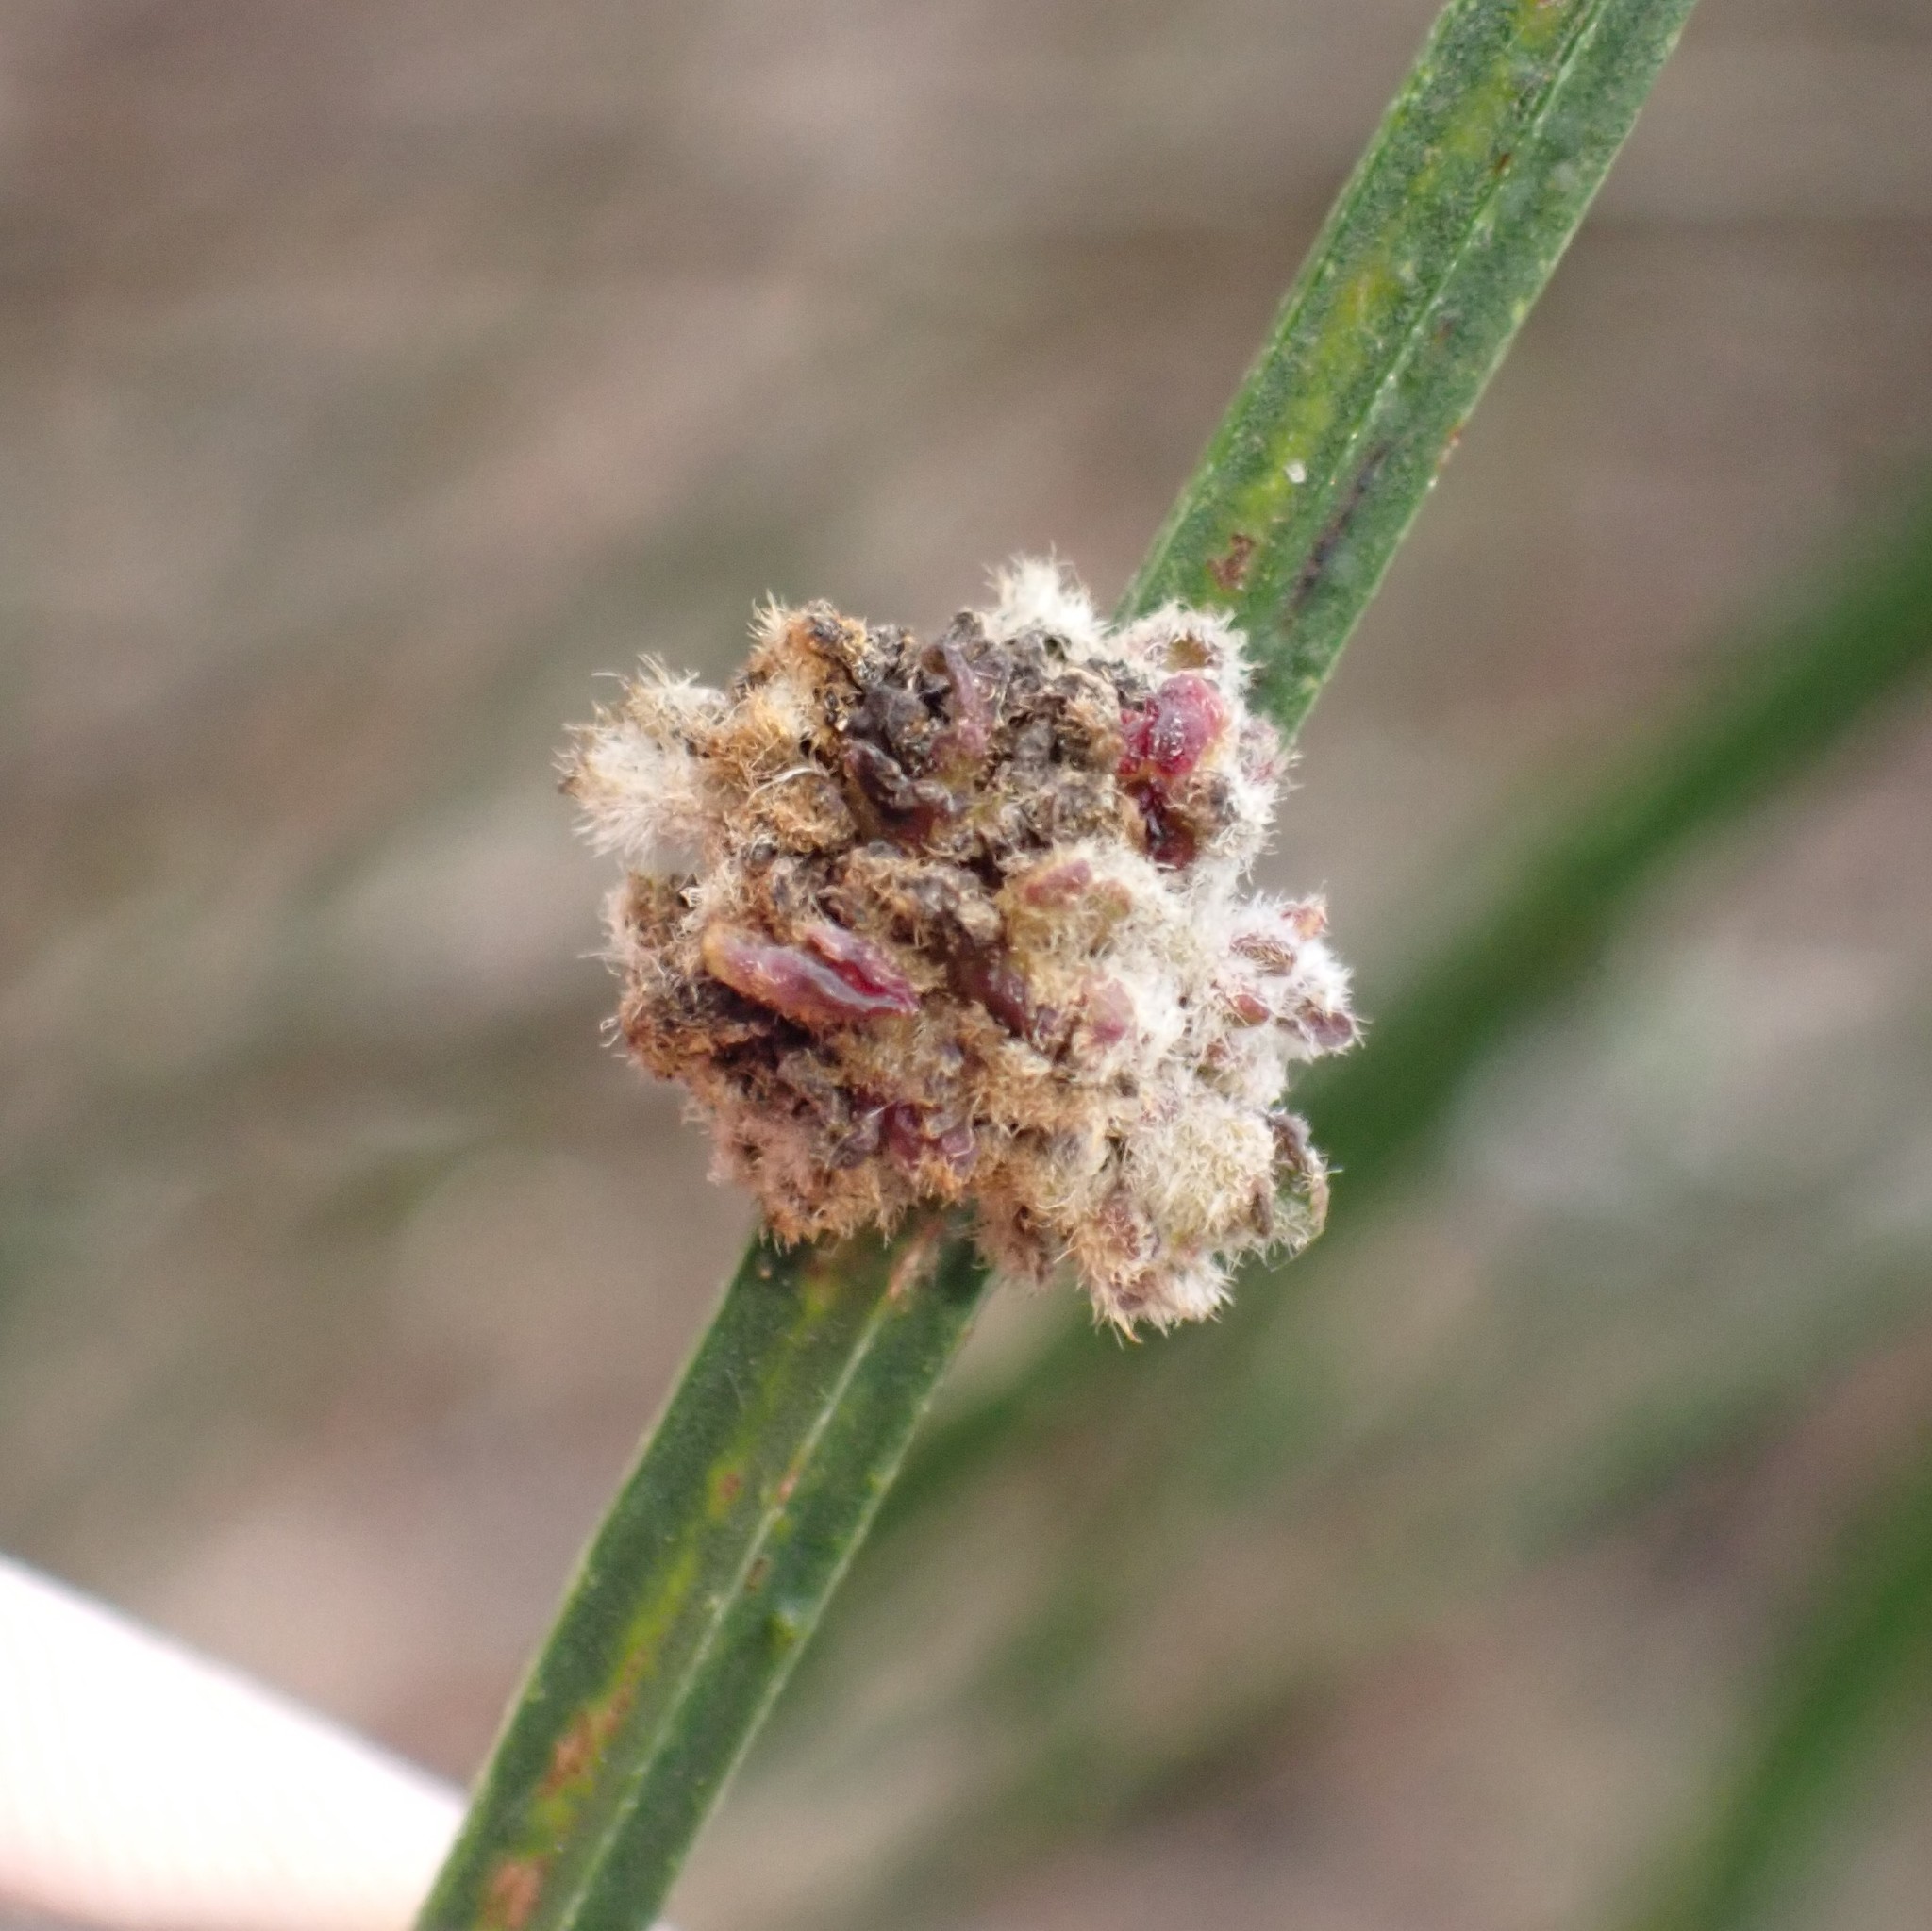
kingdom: Animalia
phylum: Arthropoda
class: Arachnida
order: Trombidiformes
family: Eriophyidae
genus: Aceria
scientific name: Aceria genistae
